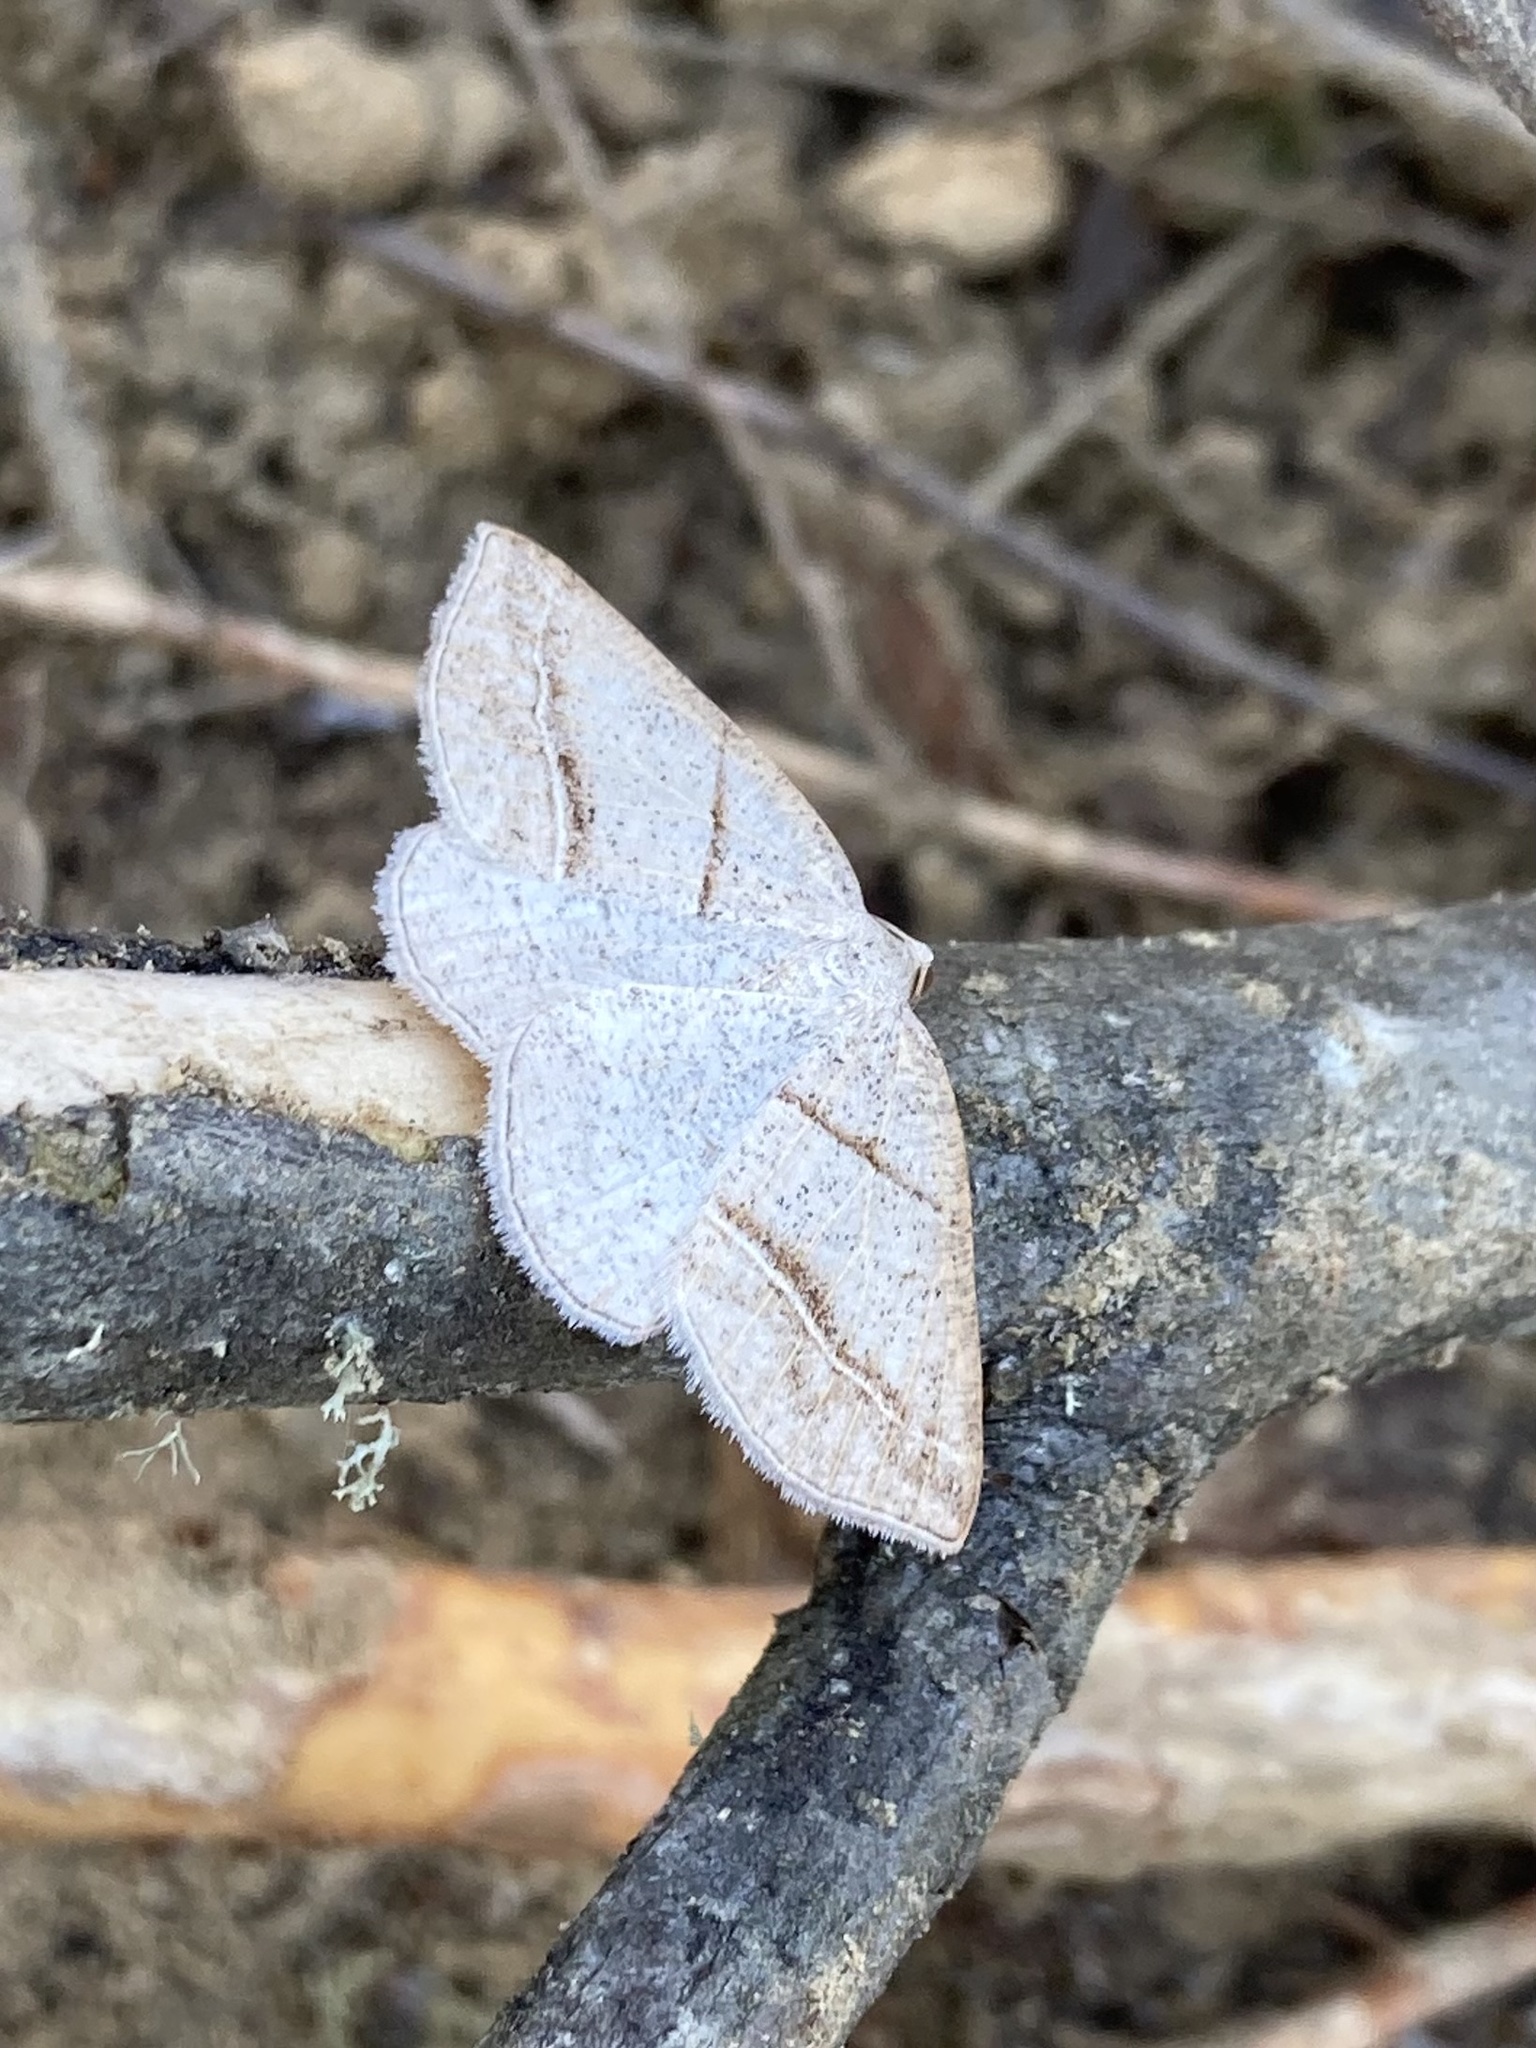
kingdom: Animalia
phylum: Arthropoda
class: Insecta
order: Lepidoptera
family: Pterophoridae
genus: Pterophorus
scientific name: Pterophorus Petrophora subaequaria
